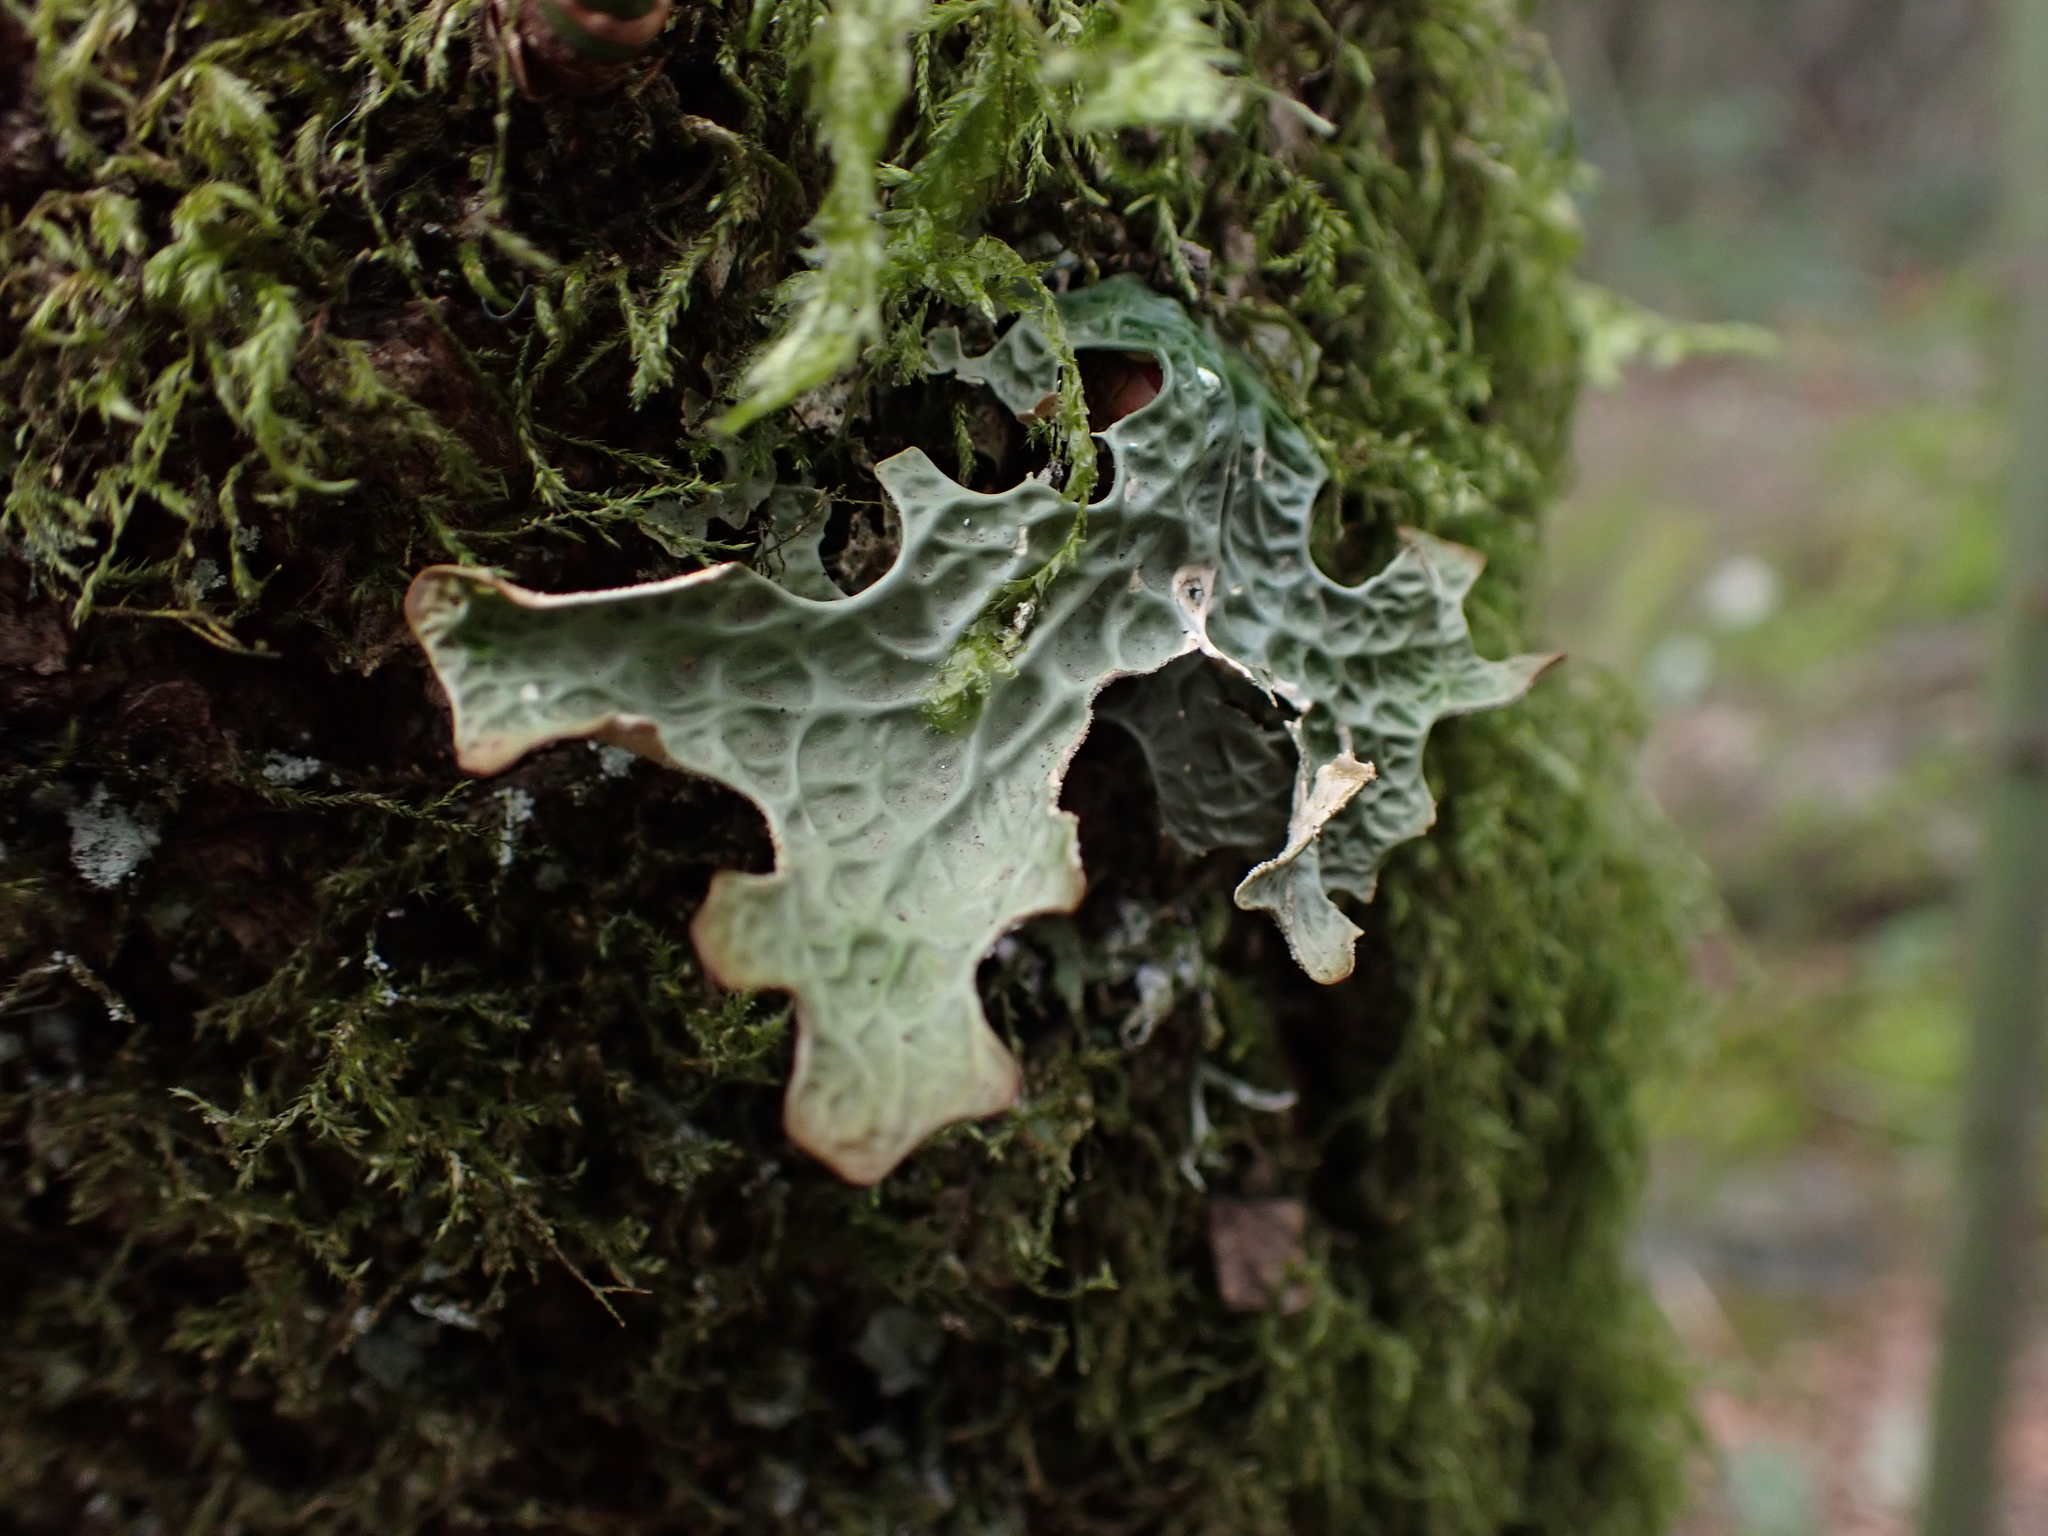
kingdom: Fungi
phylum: Ascomycota
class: Lecanoromycetes
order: Peltigerales
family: Lobariaceae
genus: Lobaria
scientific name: Lobaria pulmonaria
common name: Lungwort
